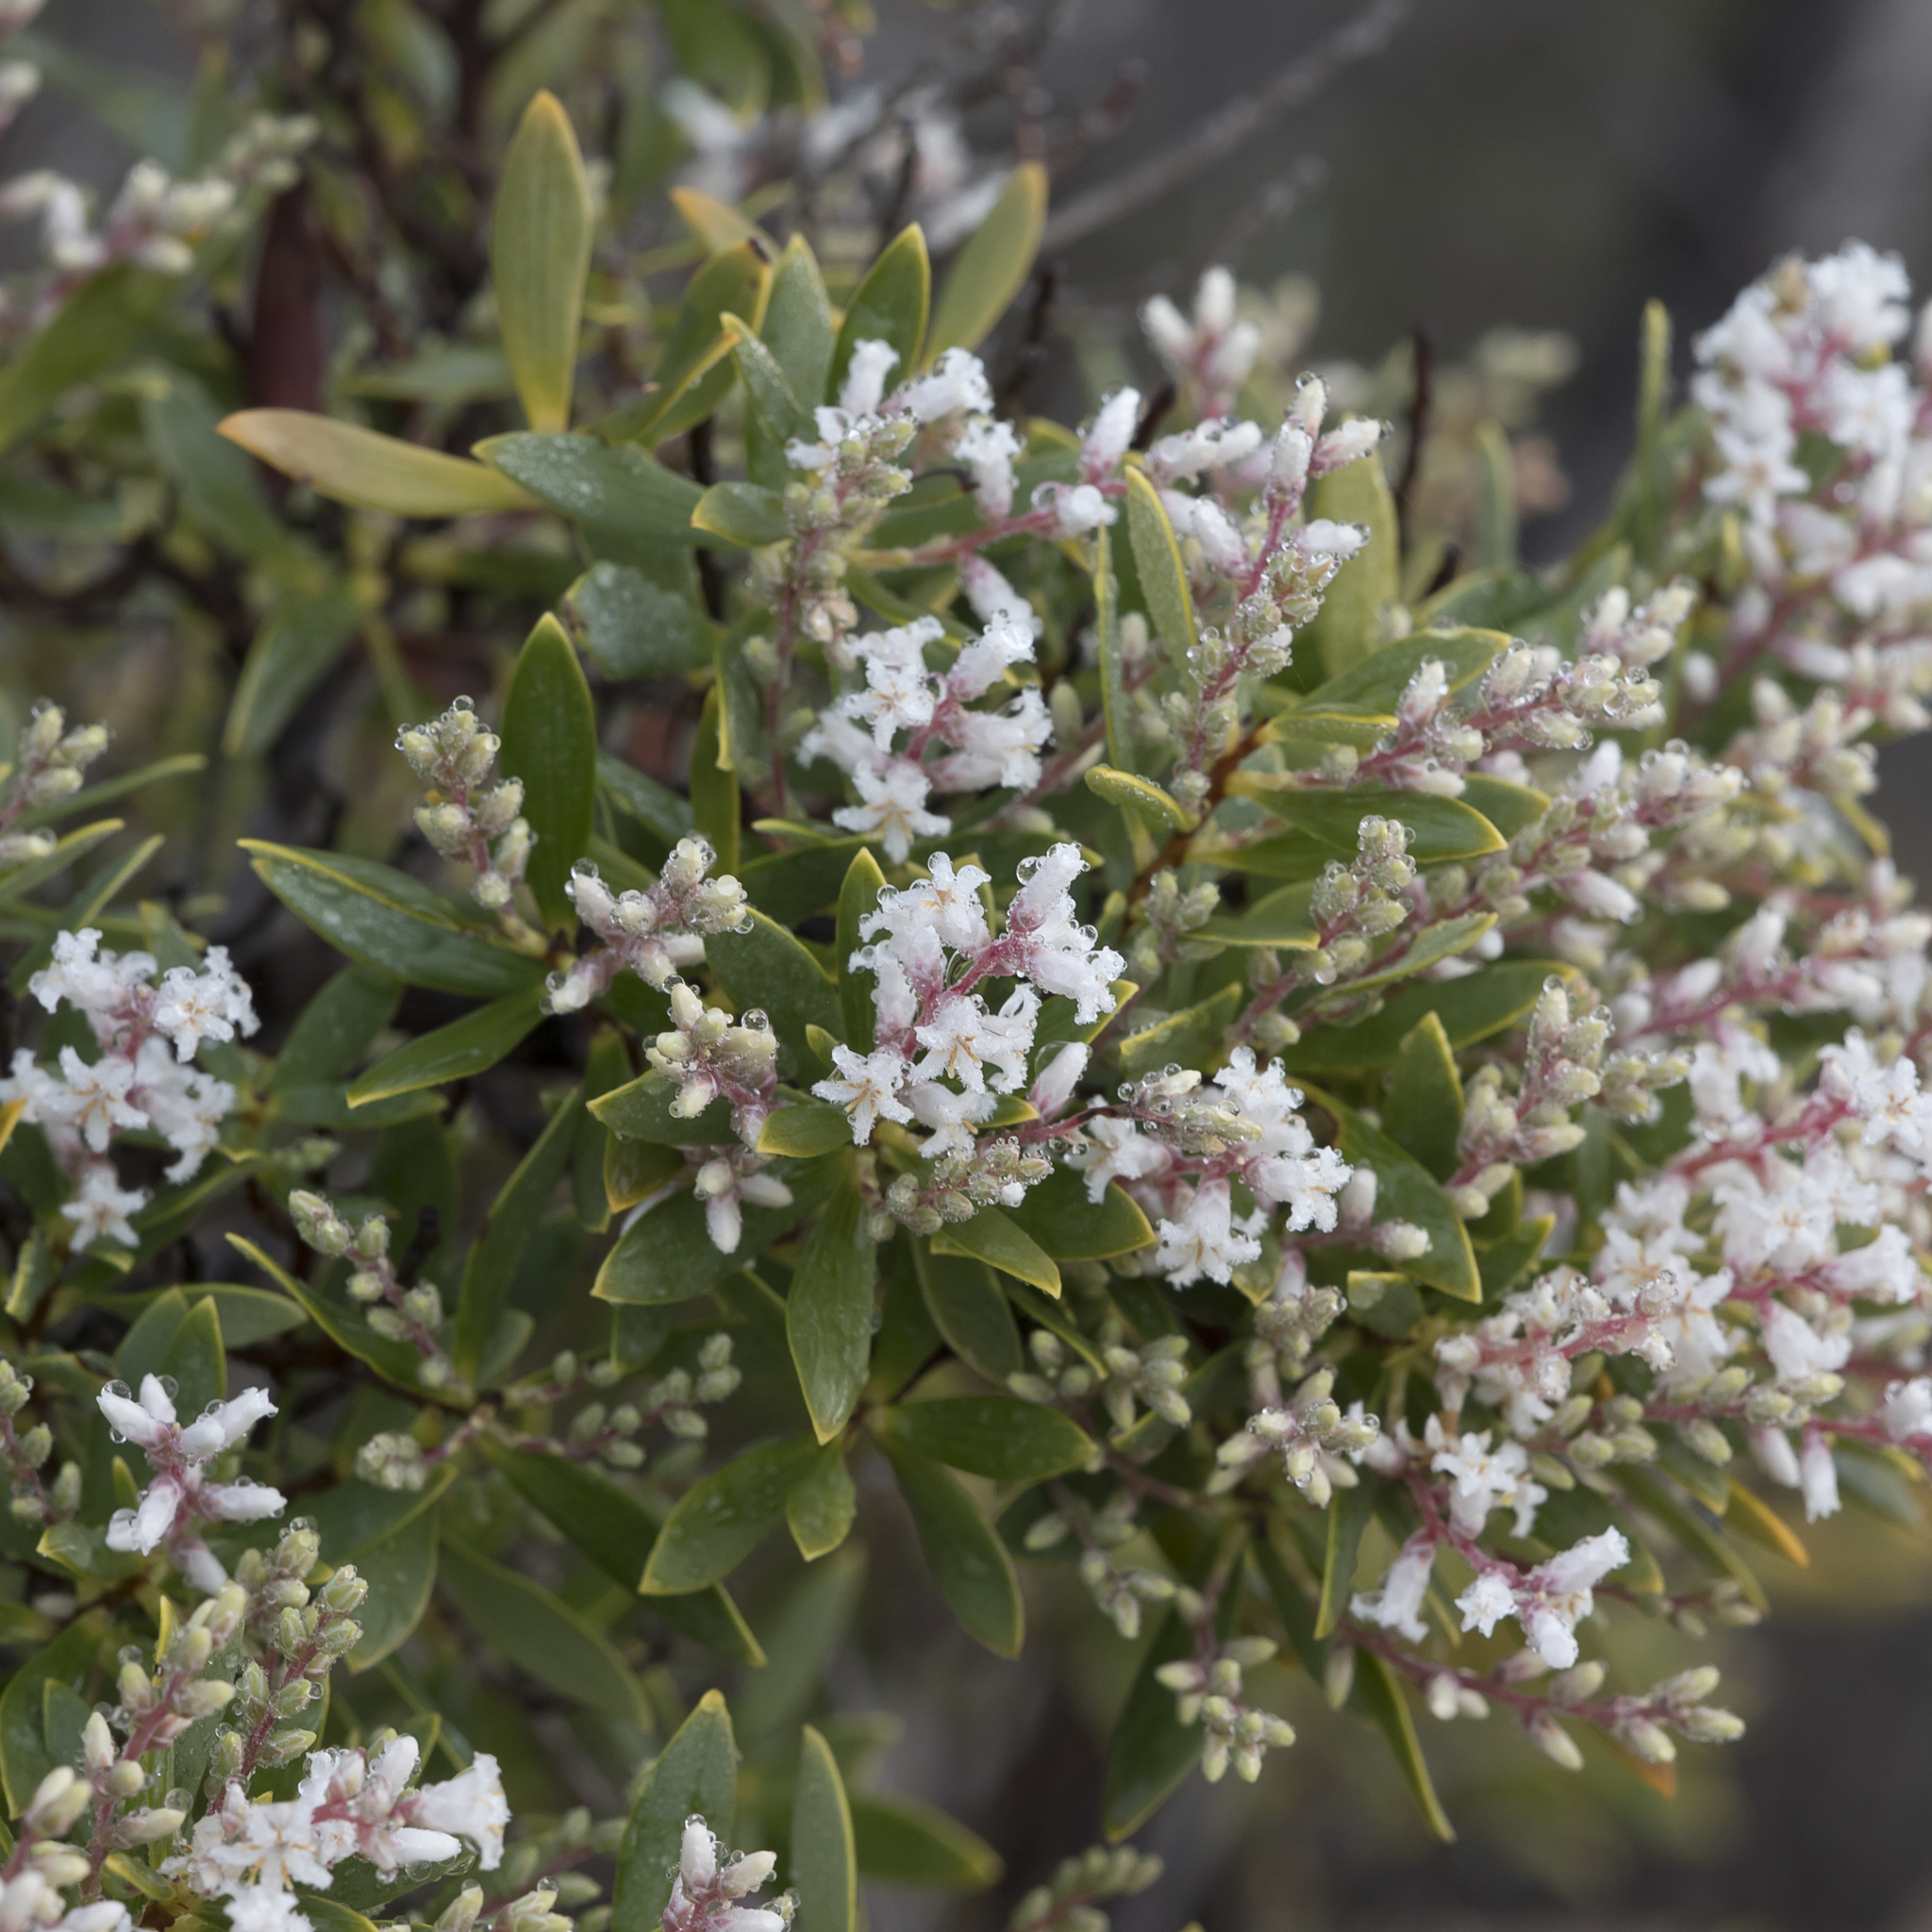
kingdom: Plantae
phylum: Tracheophyta
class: Magnoliopsida
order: Ericales
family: Ericaceae
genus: Leptecophylla
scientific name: Leptecophylla parvifolia
